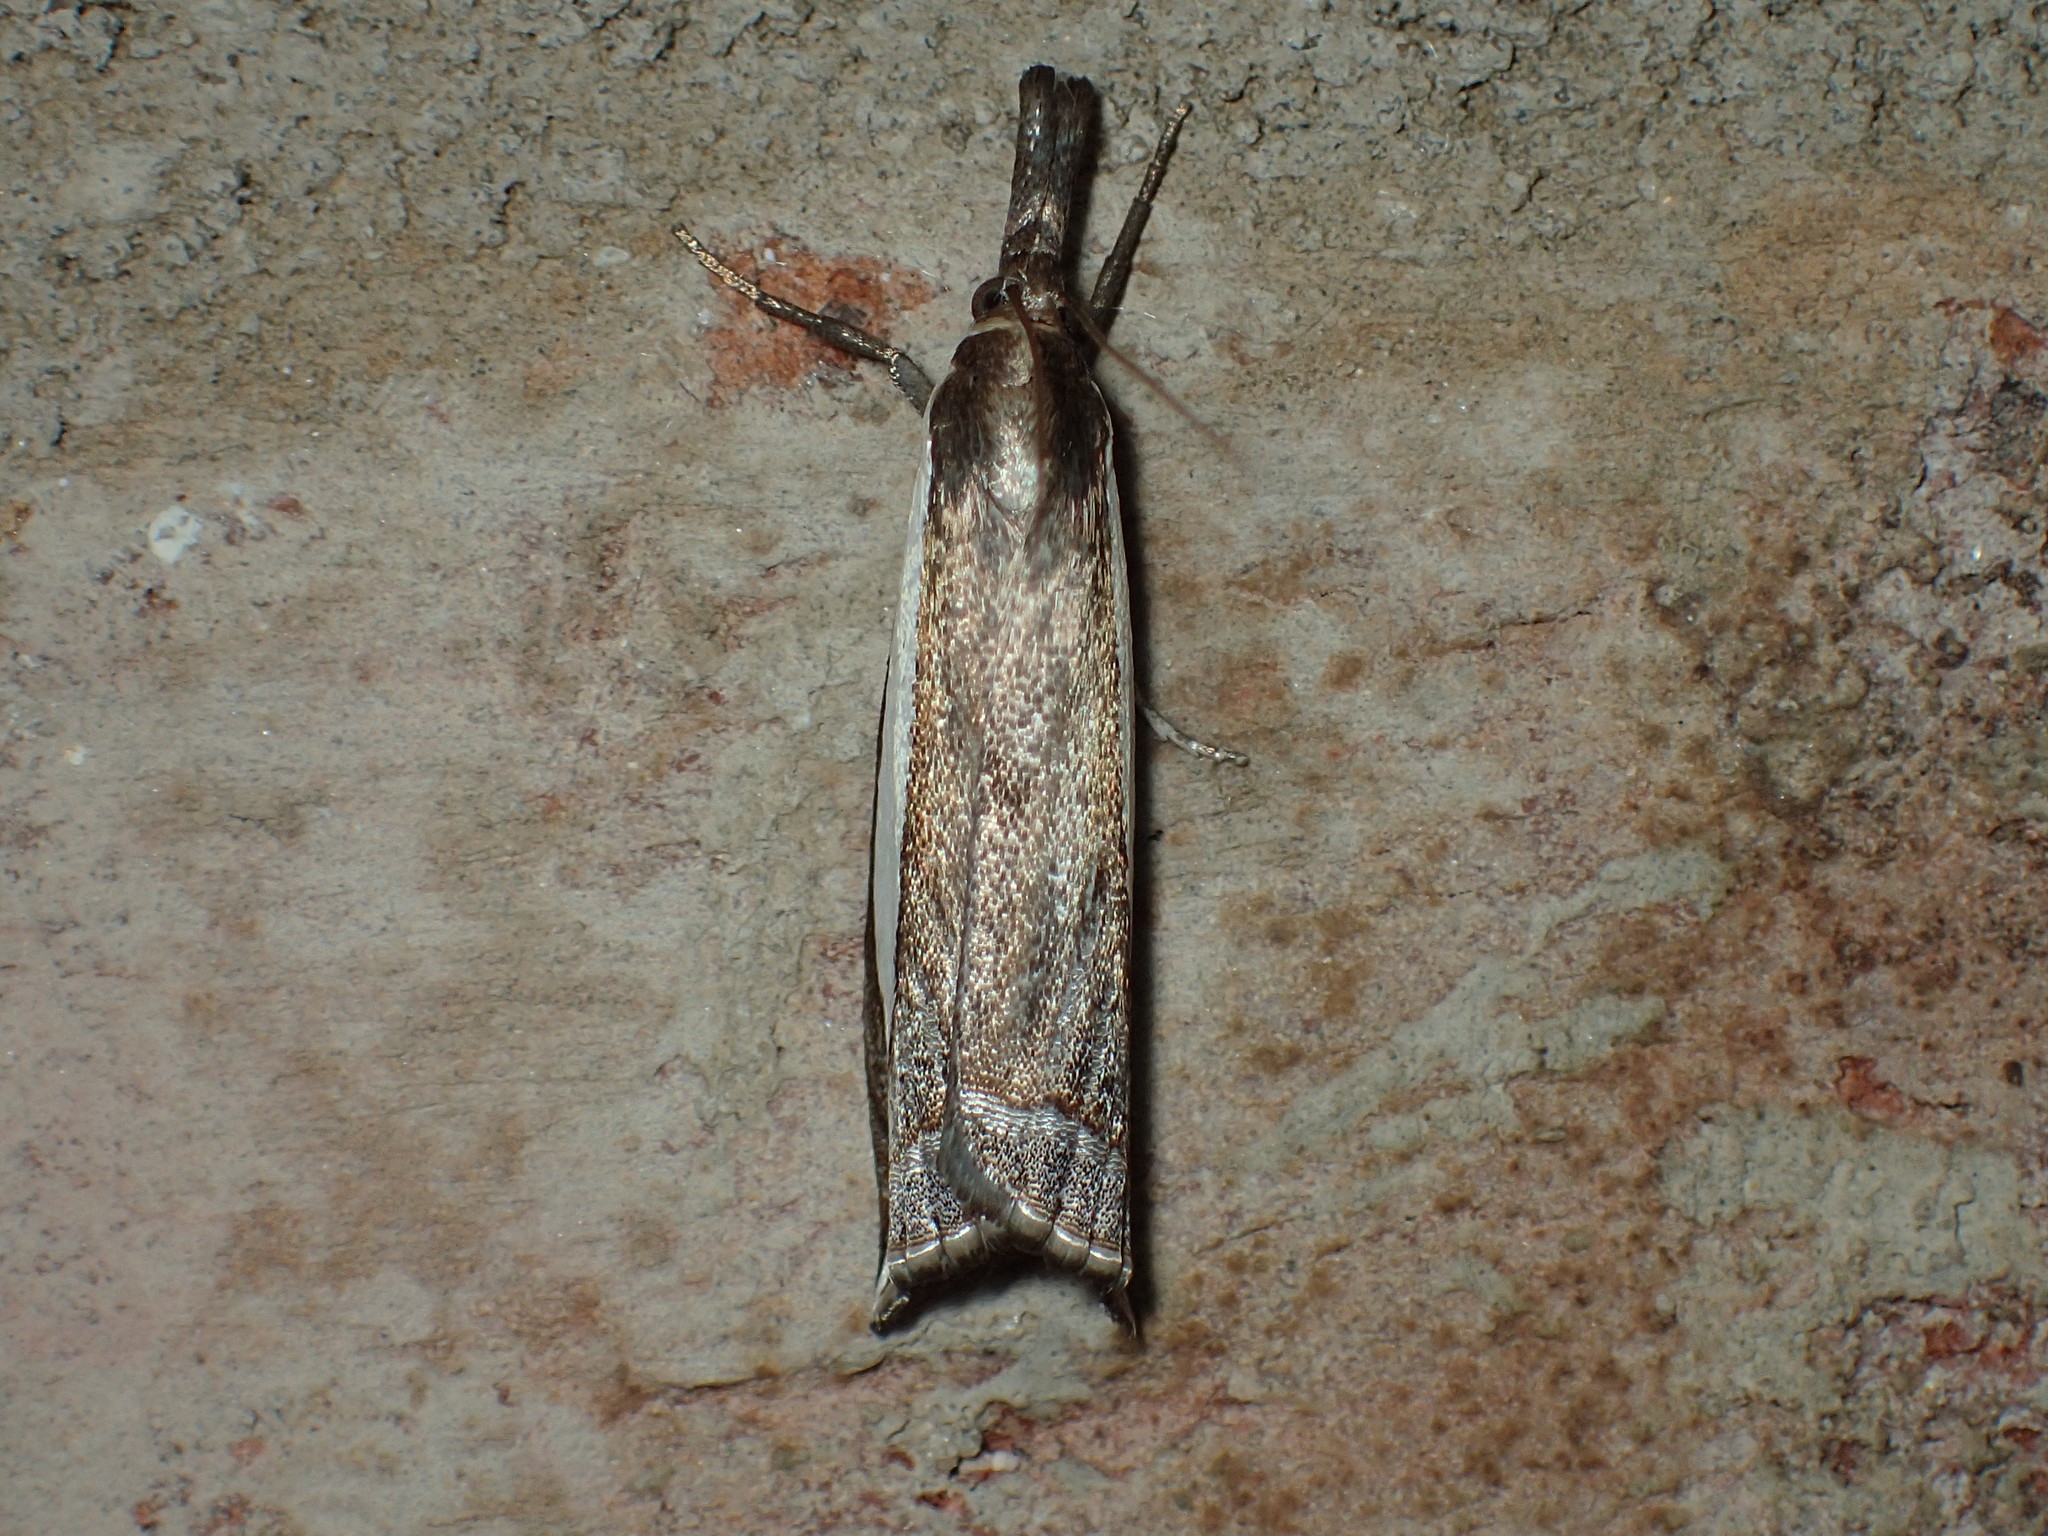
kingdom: Animalia
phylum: Arthropoda
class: Insecta
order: Lepidoptera
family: Crambidae
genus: Raphiptera
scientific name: Raphiptera argillaceellus
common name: Diminutive grass-veneer
